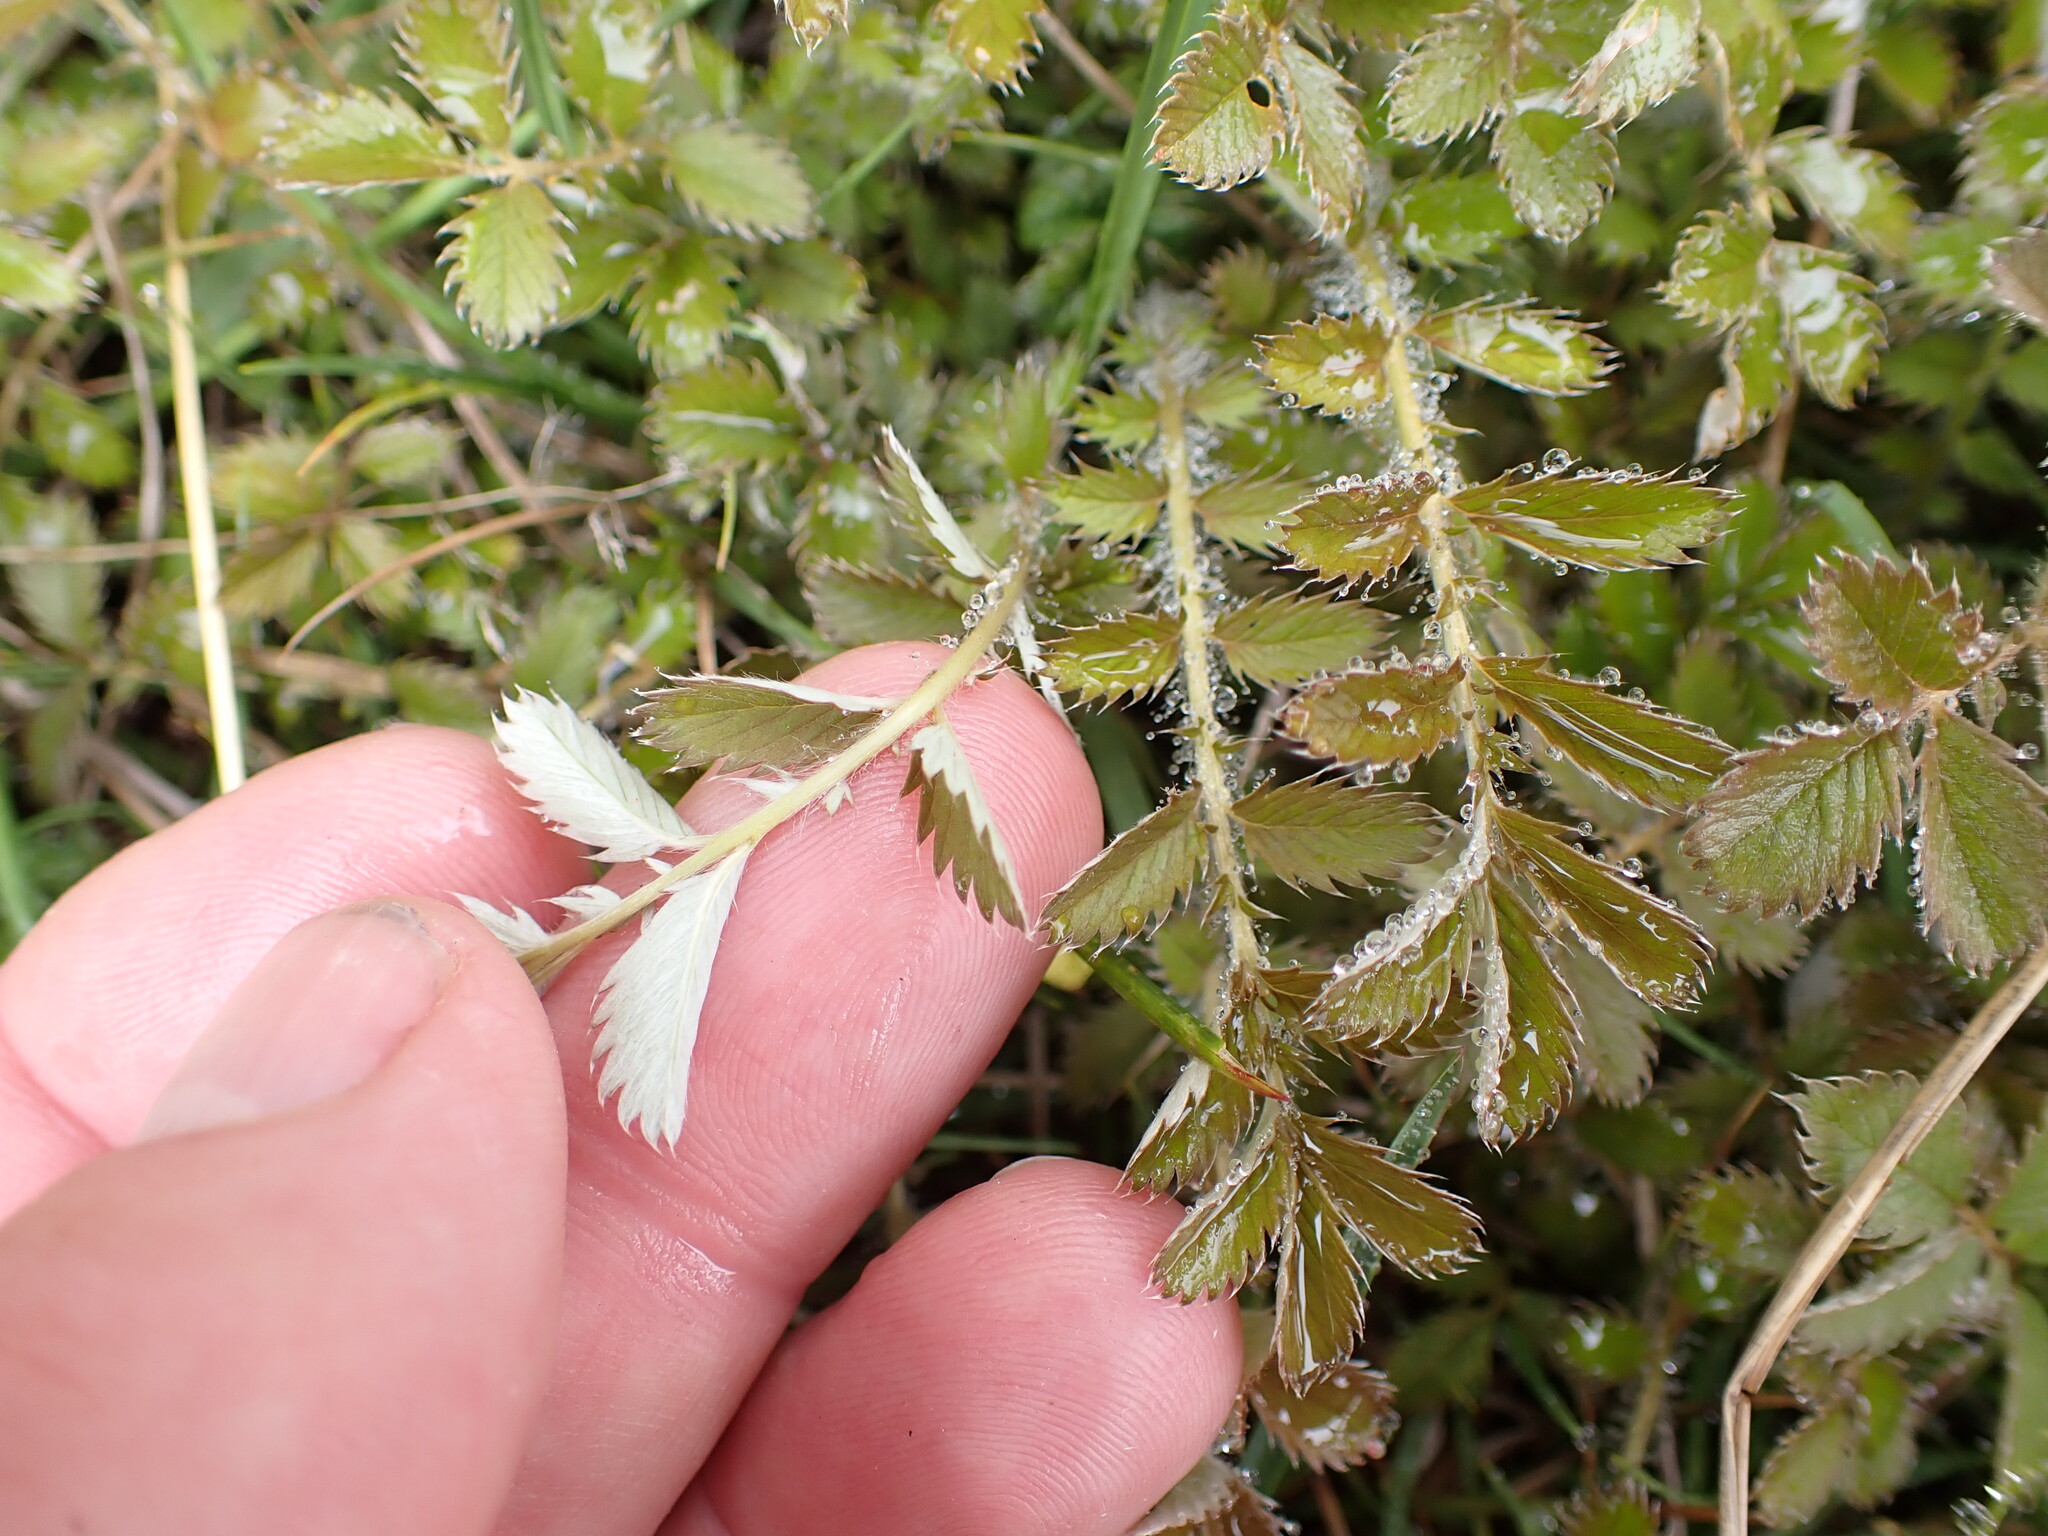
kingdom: Plantae
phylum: Tracheophyta
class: Magnoliopsida
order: Rosales
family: Rosaceae
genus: Argentina
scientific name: Argentina anserinoides
